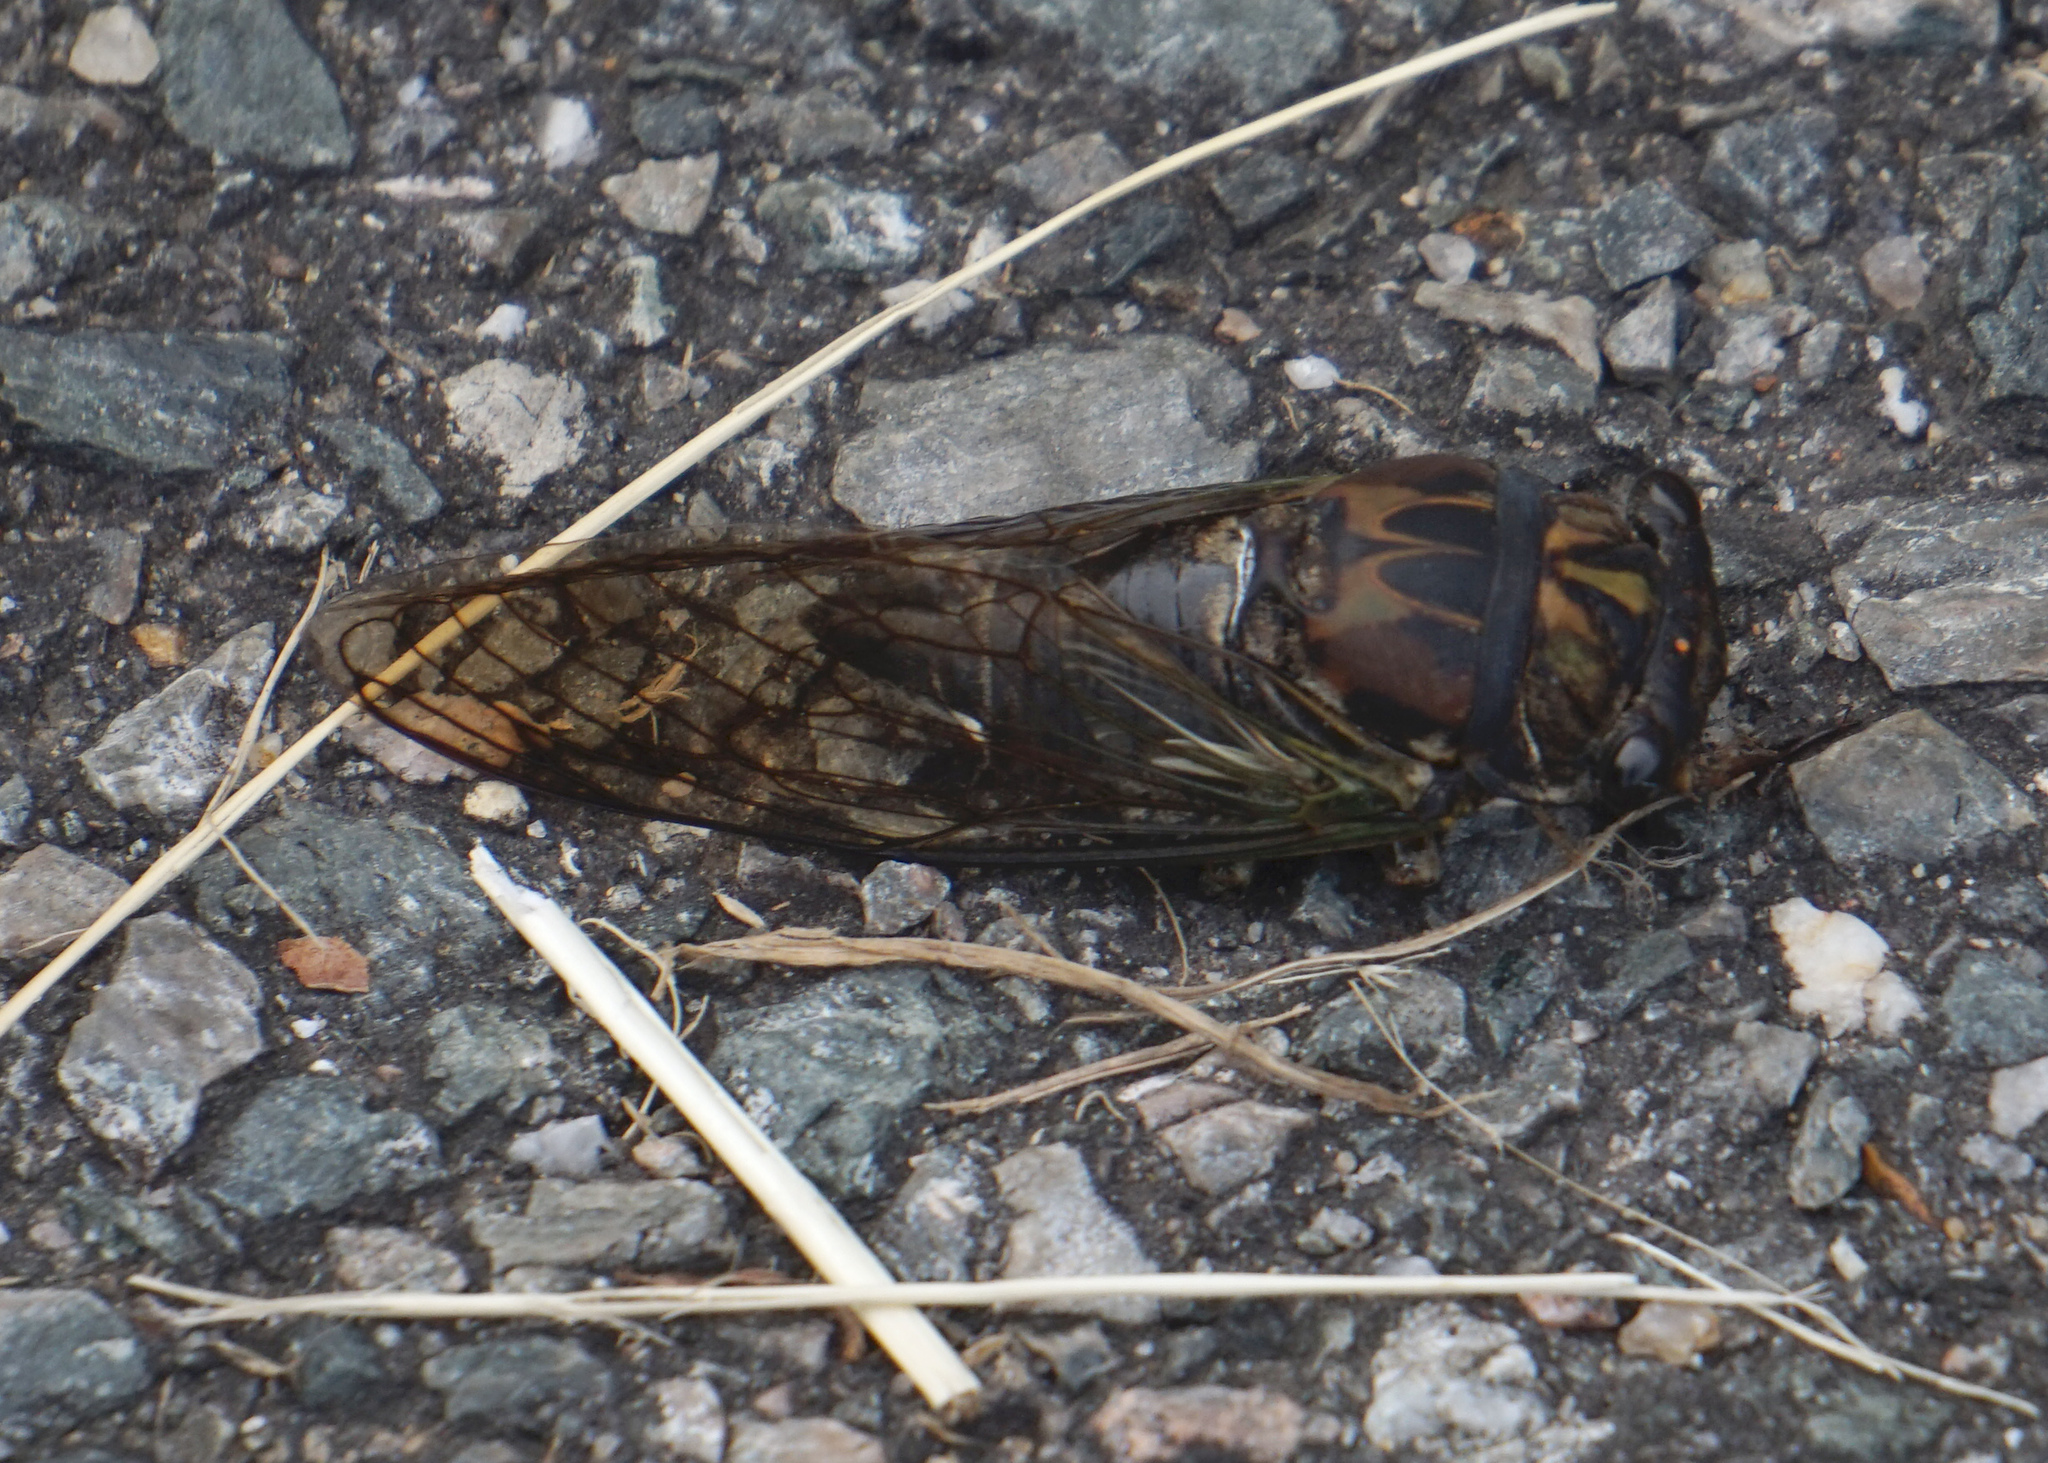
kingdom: Animalia
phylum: Arthropoda
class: Insecta
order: Hemiptera
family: Cicadidae
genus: Neotibicen
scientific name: Neotibicen lyricen
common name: Lyric cicada
